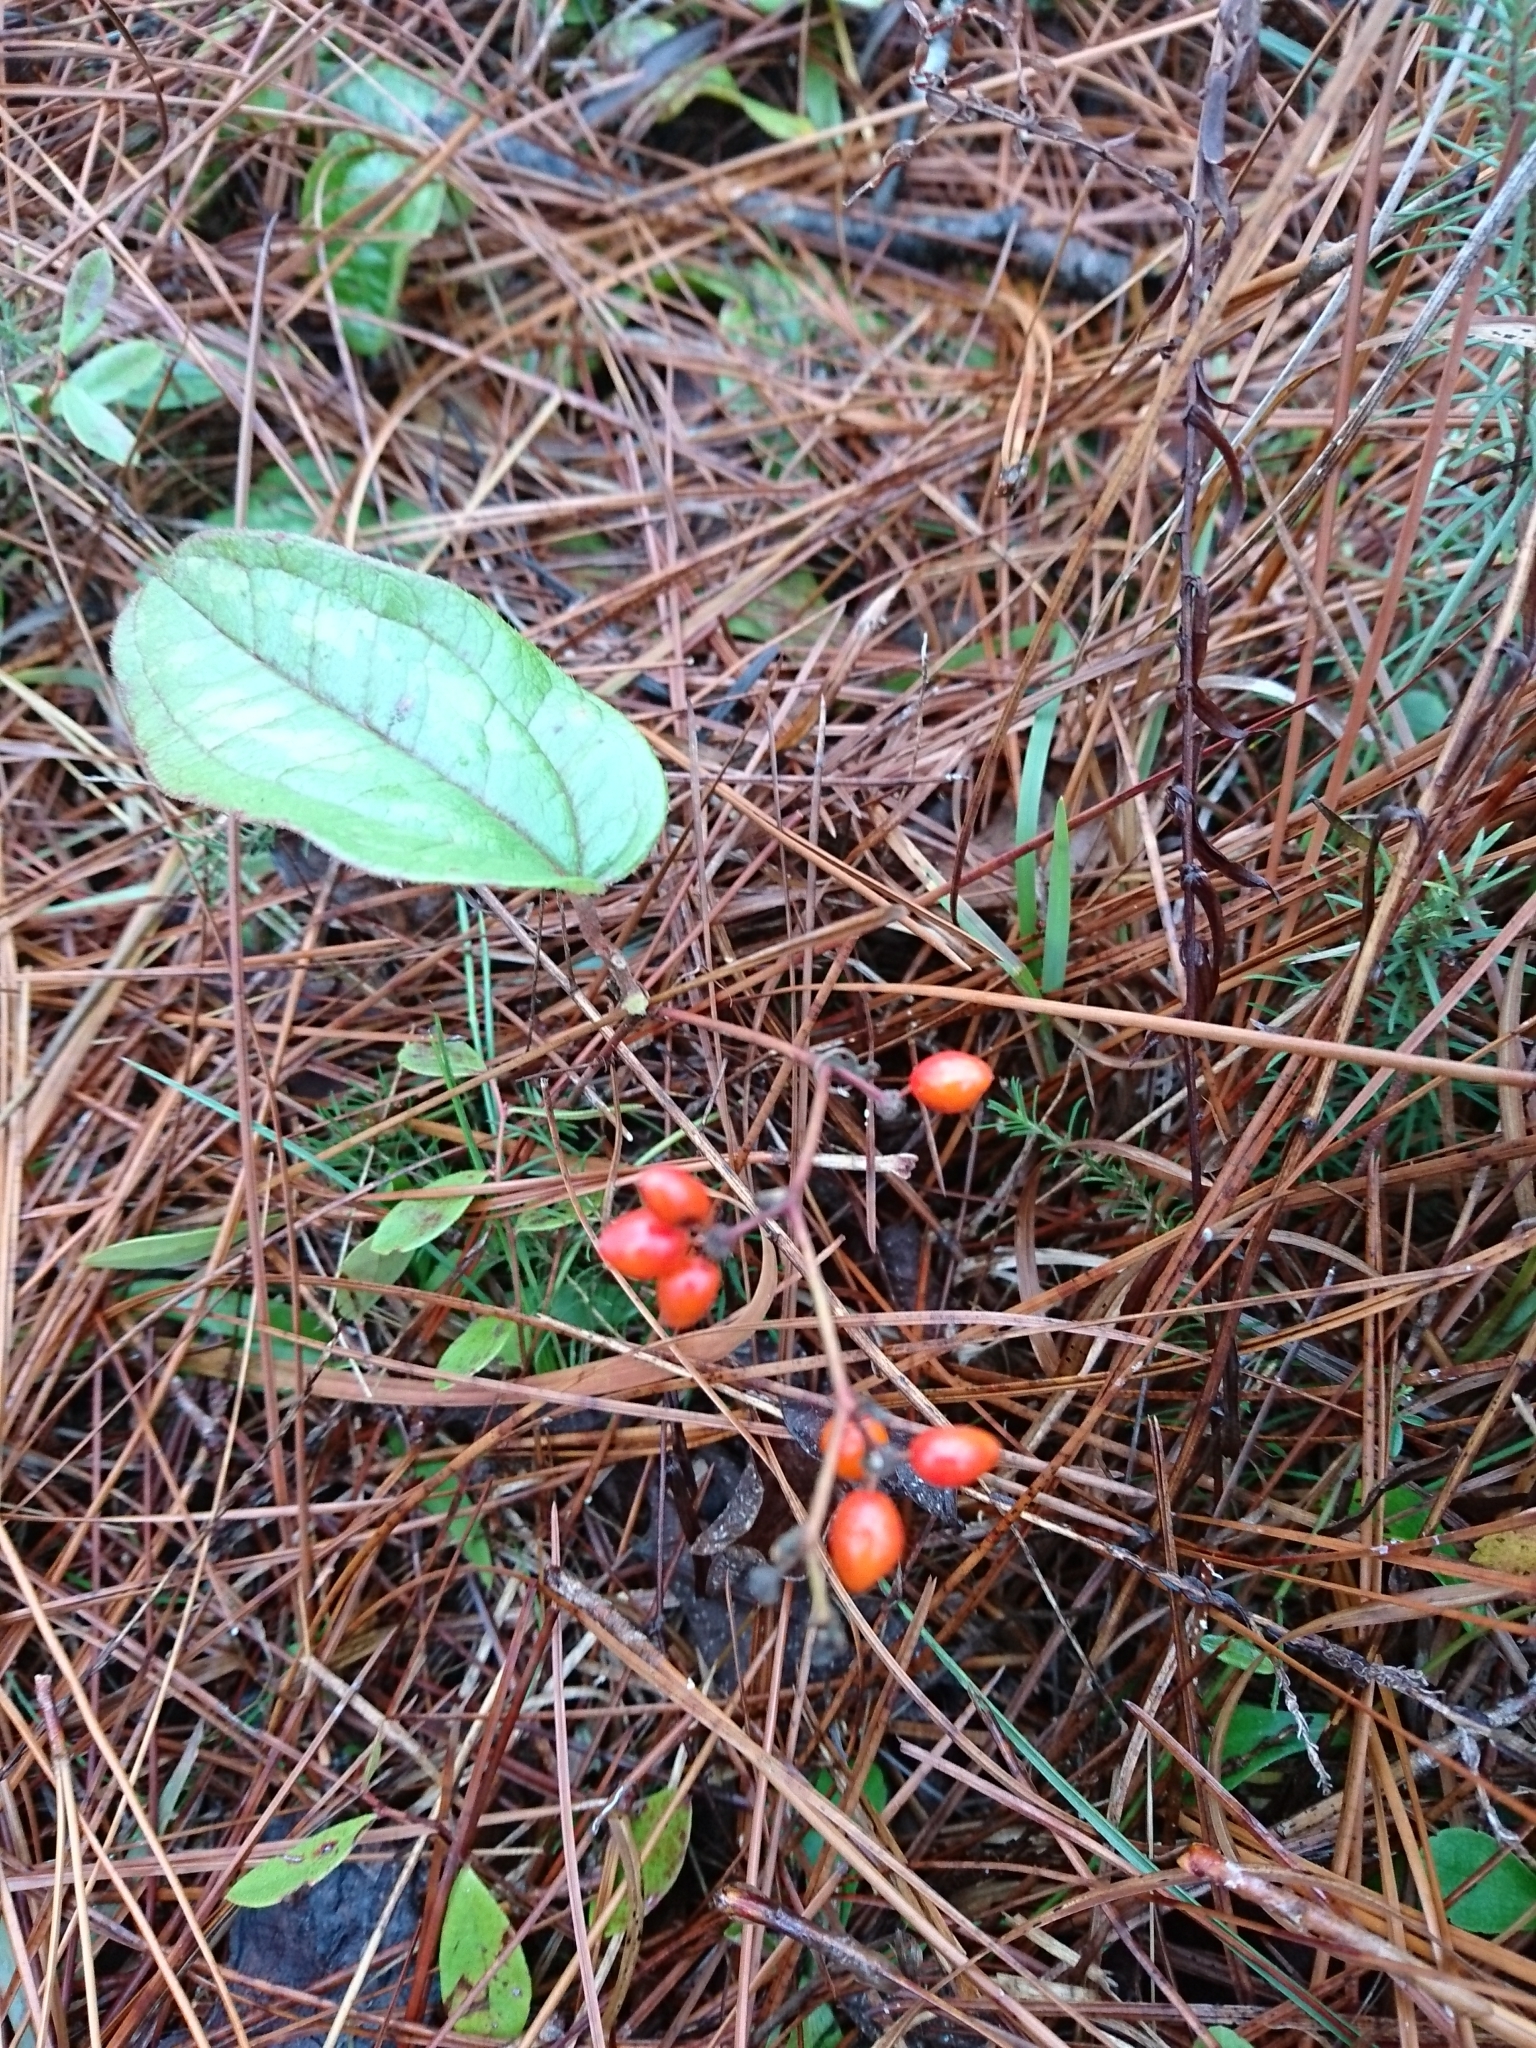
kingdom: Plantae
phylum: Tracheophyta
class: Liliopsida
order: Liliales
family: Smilacaceae
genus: Smilax
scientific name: Smilax pumila
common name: Sarsaparilla-vine
